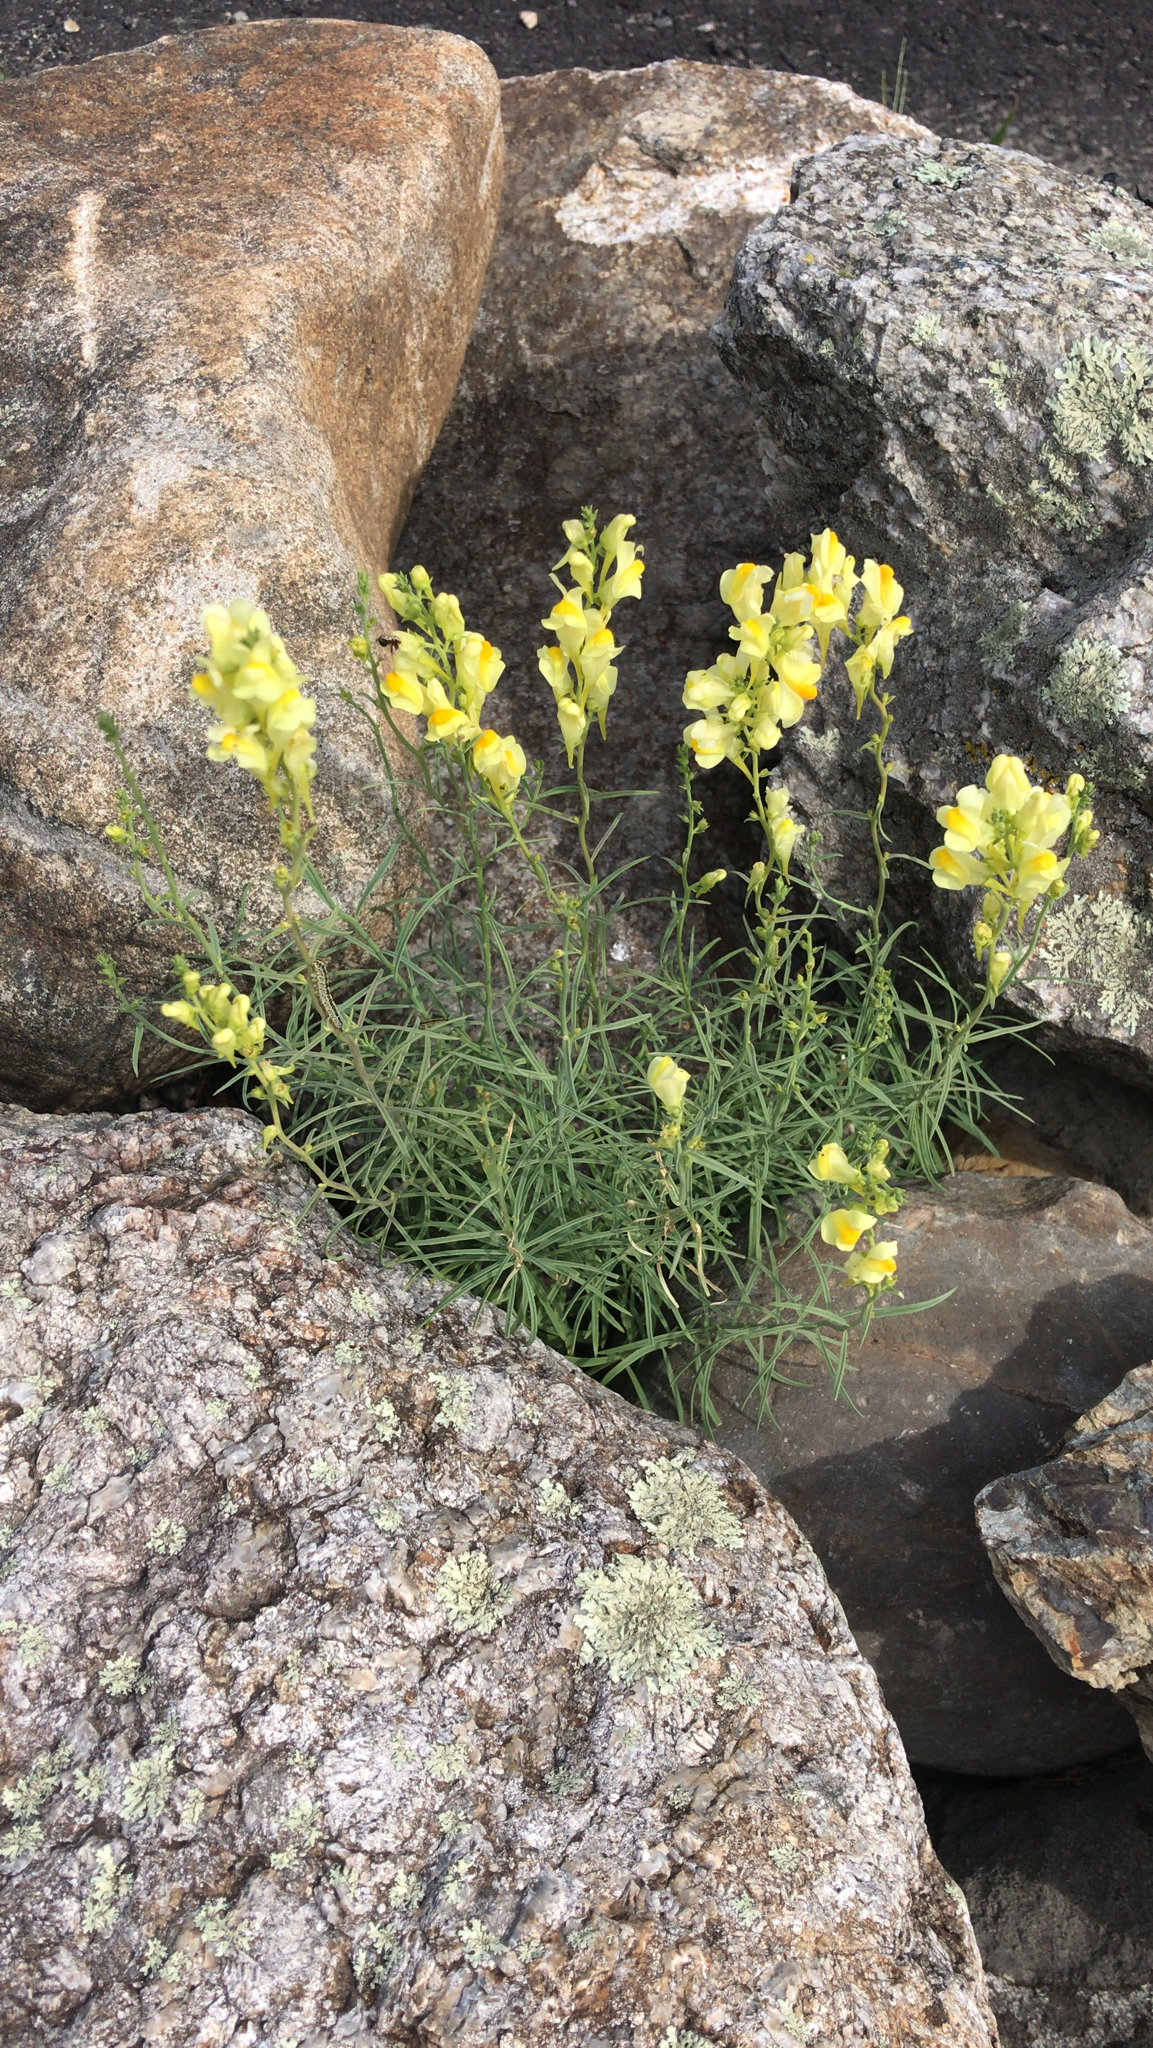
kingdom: Plantae
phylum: Tracheophyta
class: Magnoliopsida
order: Lamiales
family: Plantaginaceae
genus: Linaria
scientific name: Linaria vulgaris
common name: Butter and eggs
